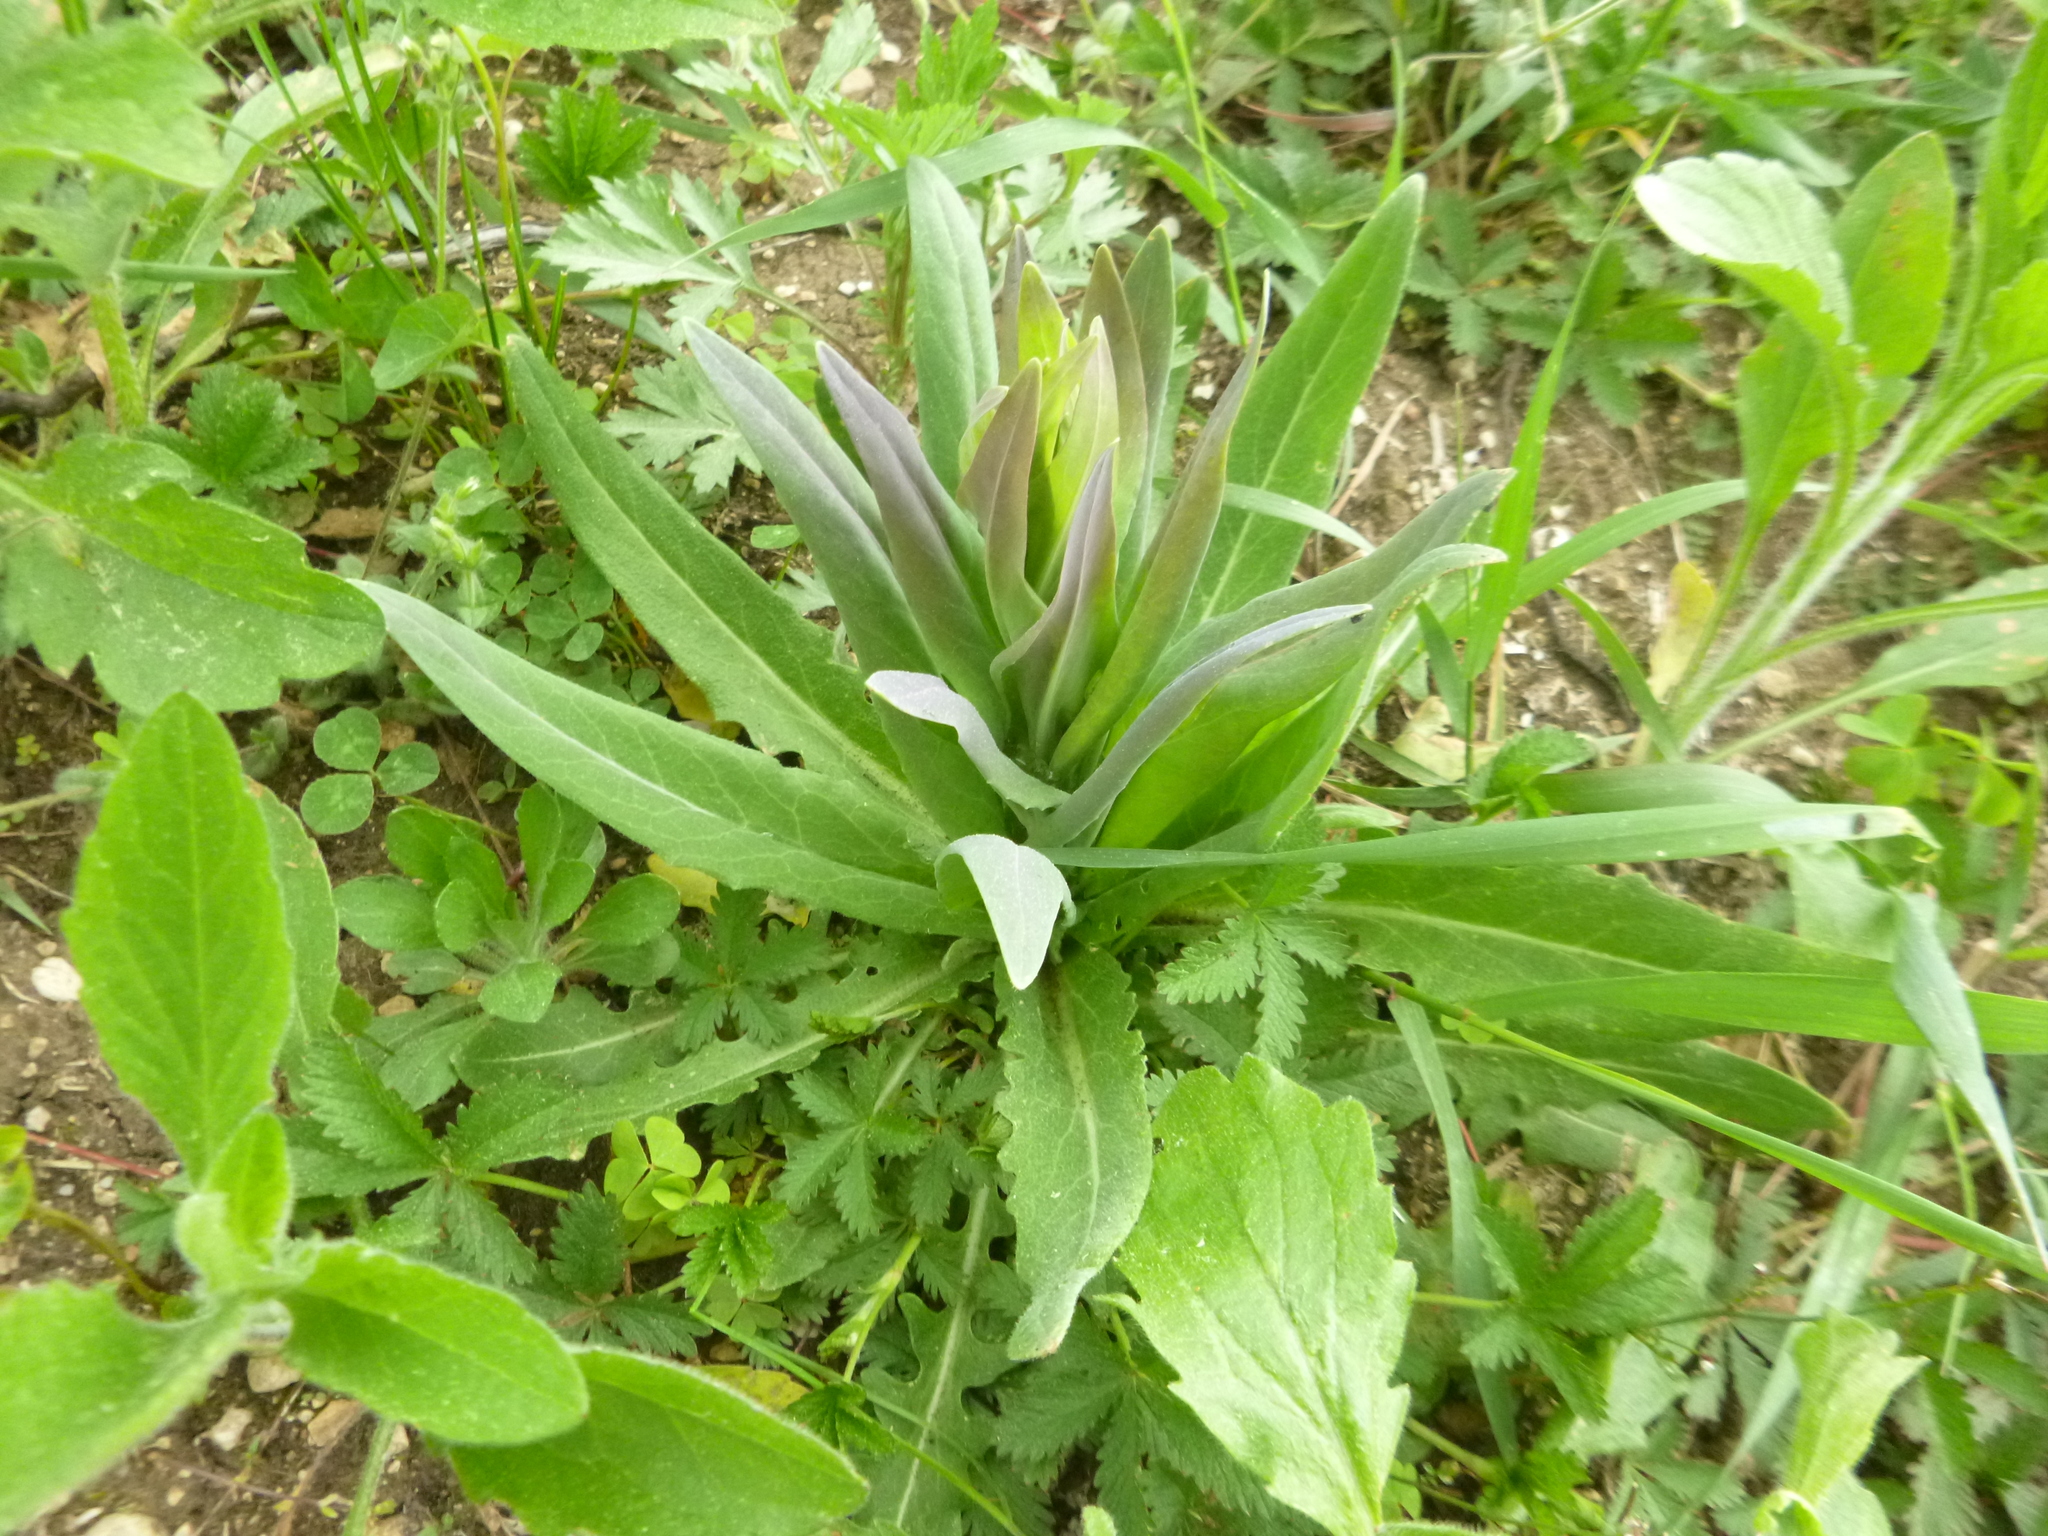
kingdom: Plantae
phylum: Tracheophyta
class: Magnoliopsida
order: Brassicales
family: Brassicaceae
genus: Turritis
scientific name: Turritis glabra
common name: Tower rockcress
